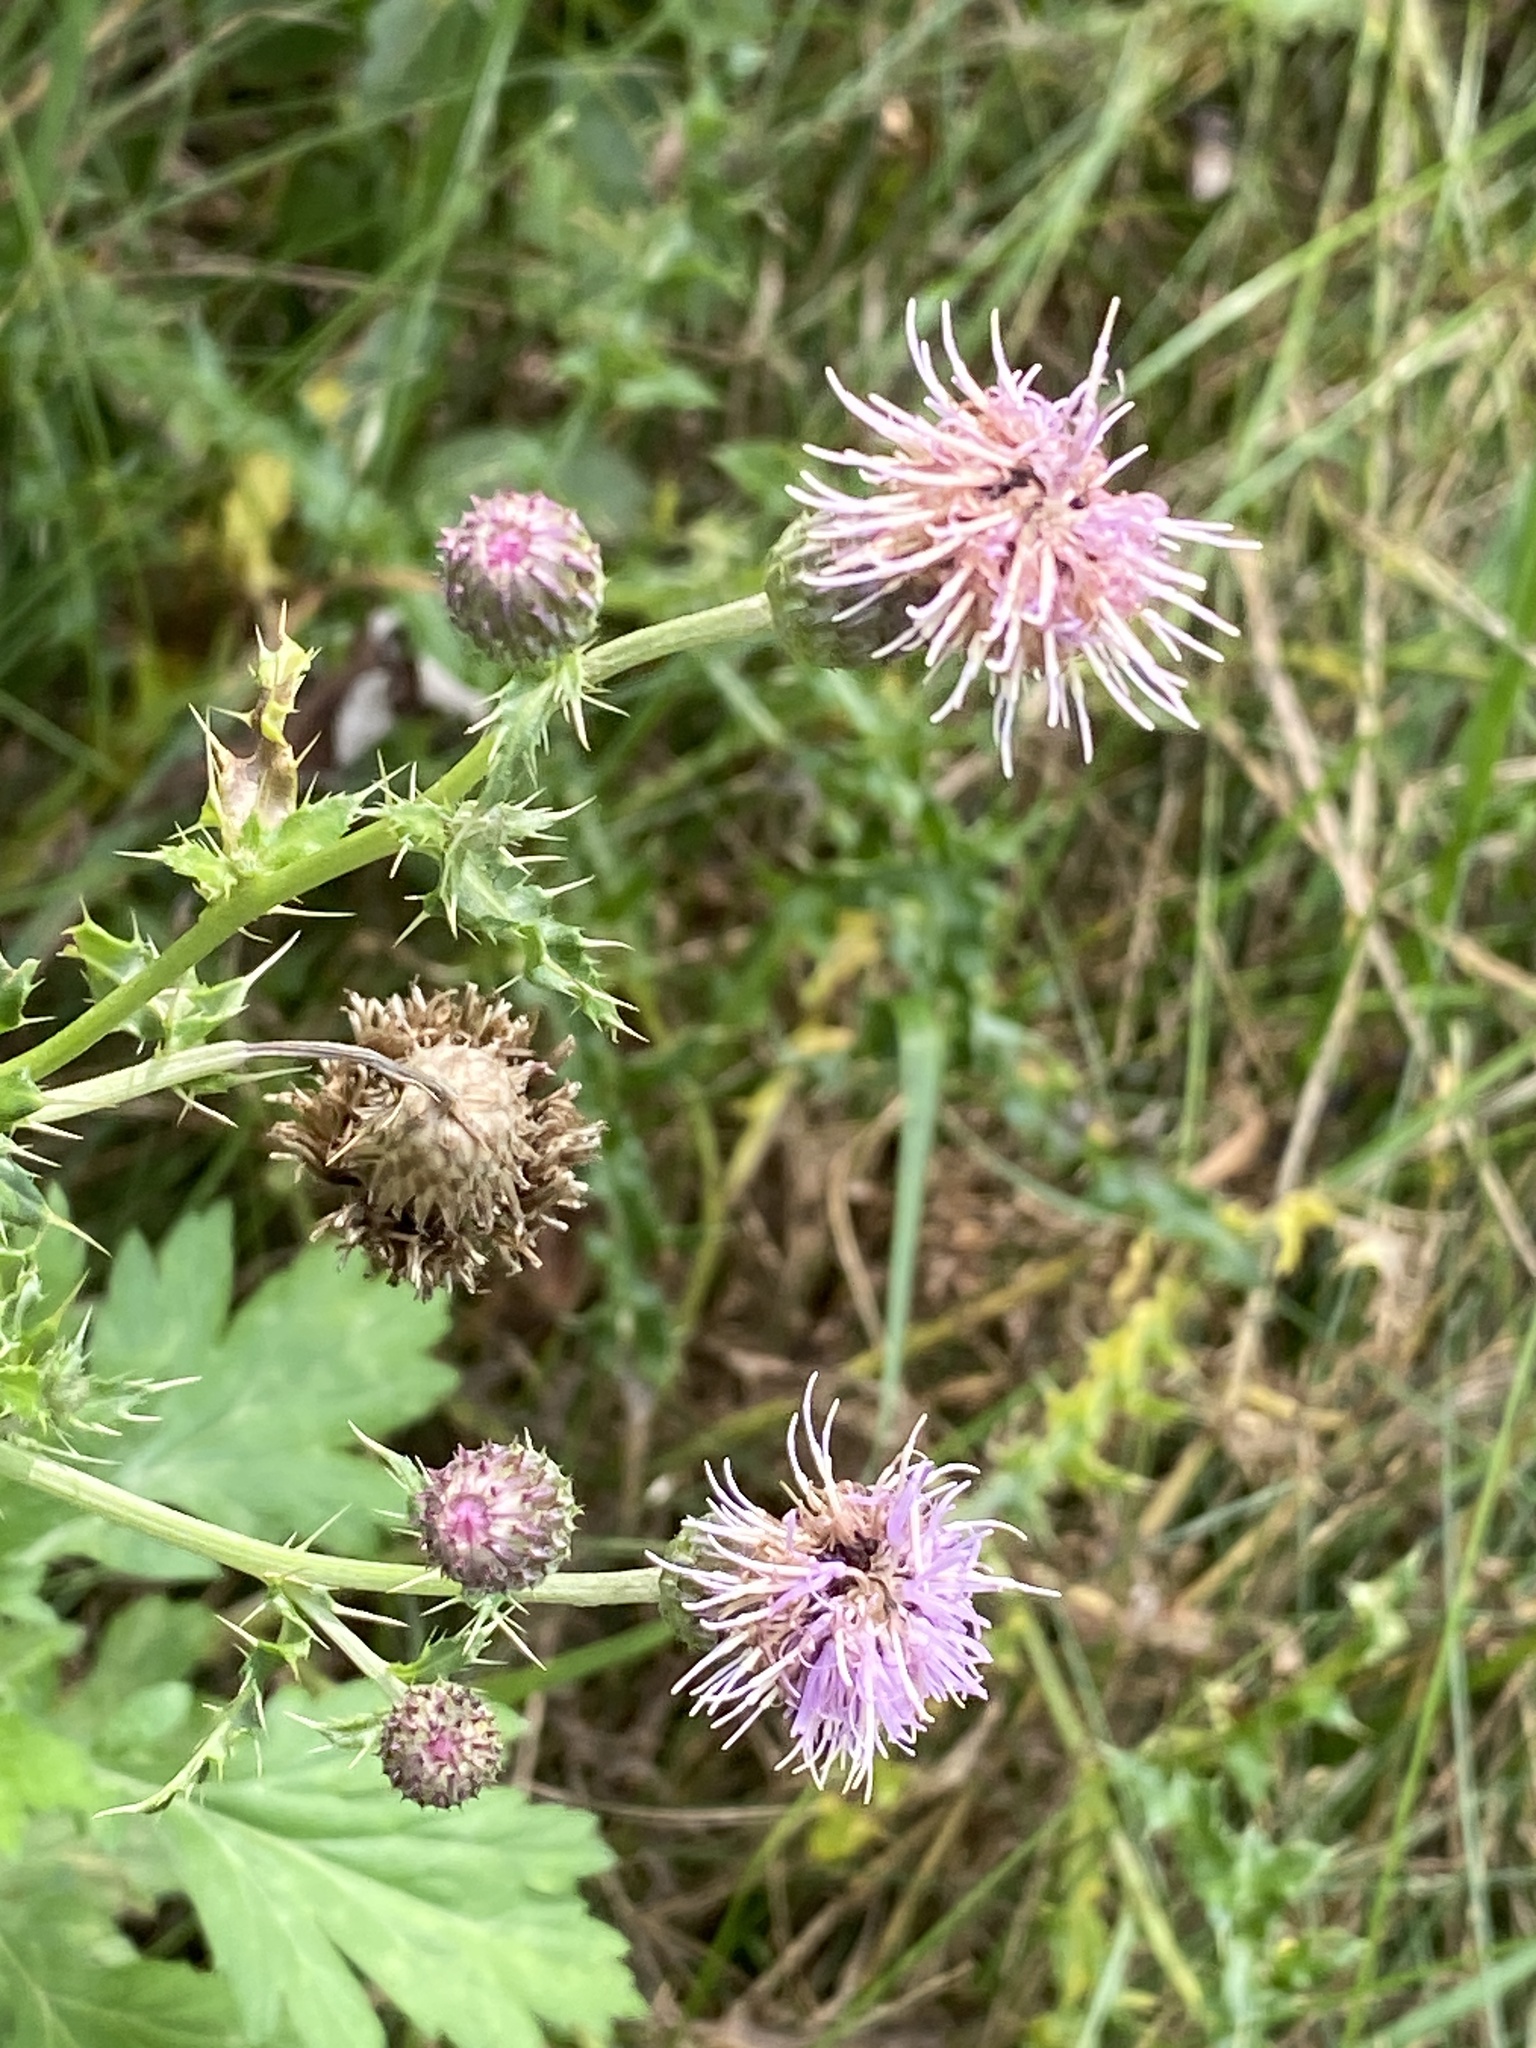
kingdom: Plantae
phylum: Tracheophyta
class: Magnoliopsida
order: Asterales
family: Asteraceae
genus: Cirsium
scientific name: Cirsium arvense
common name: Creeping thistle
